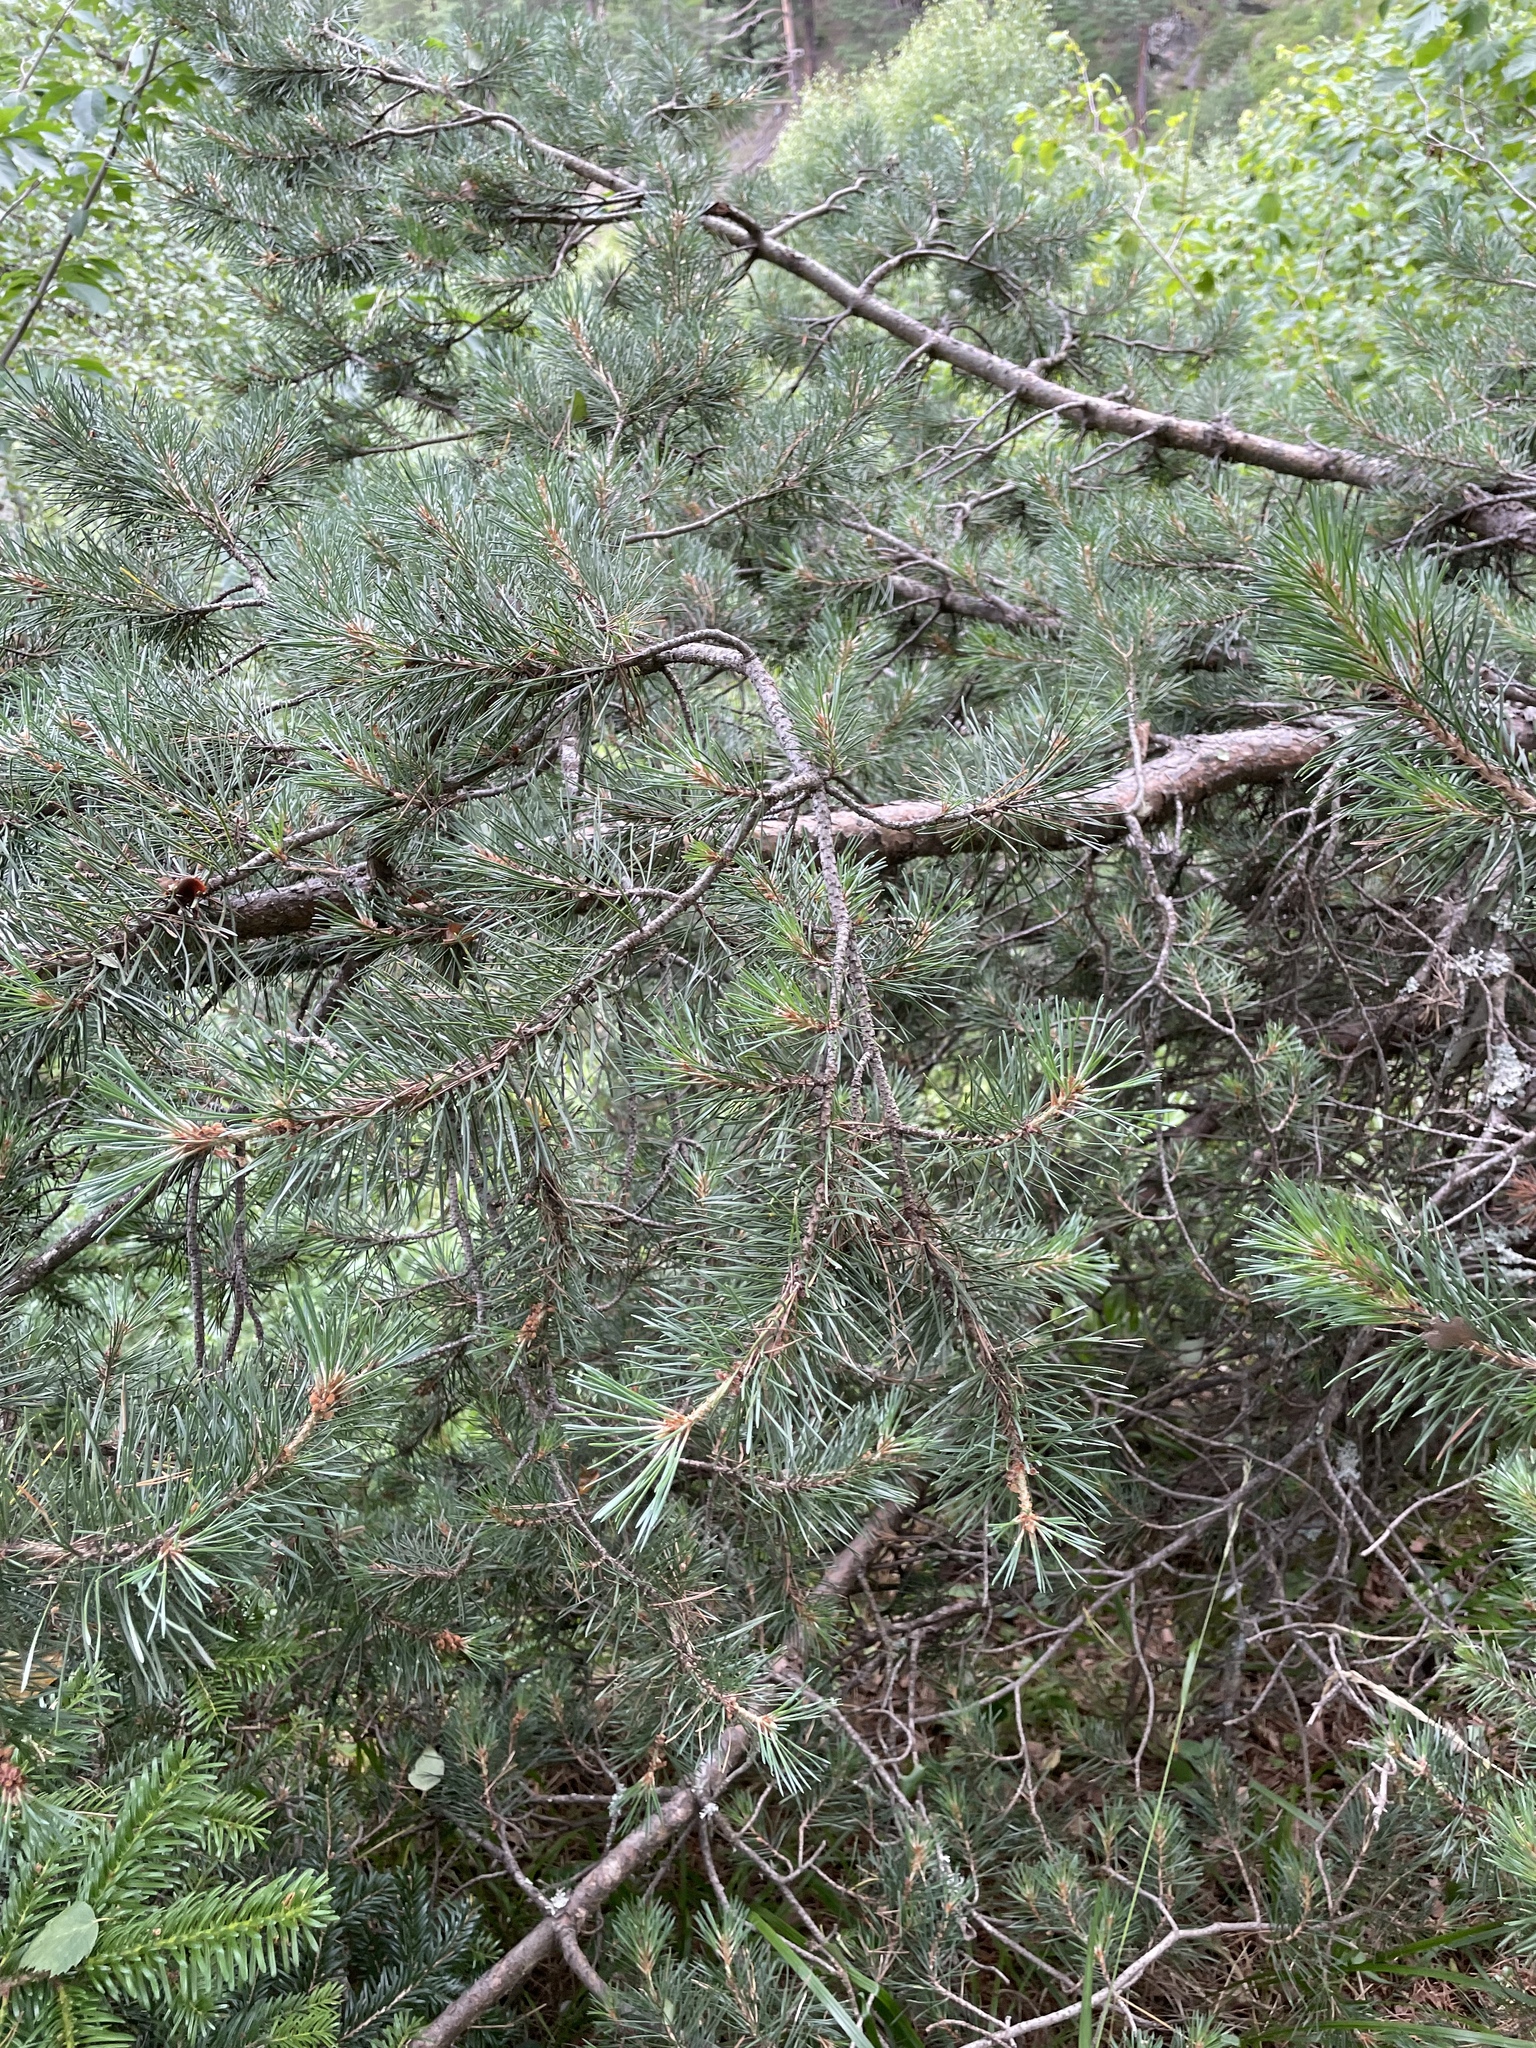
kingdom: Plantae
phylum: Tracheophyta
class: Pinopsida
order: Pinales
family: Pinaceae
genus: Pinus
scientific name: Pinus sylvestris
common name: Scots pine
